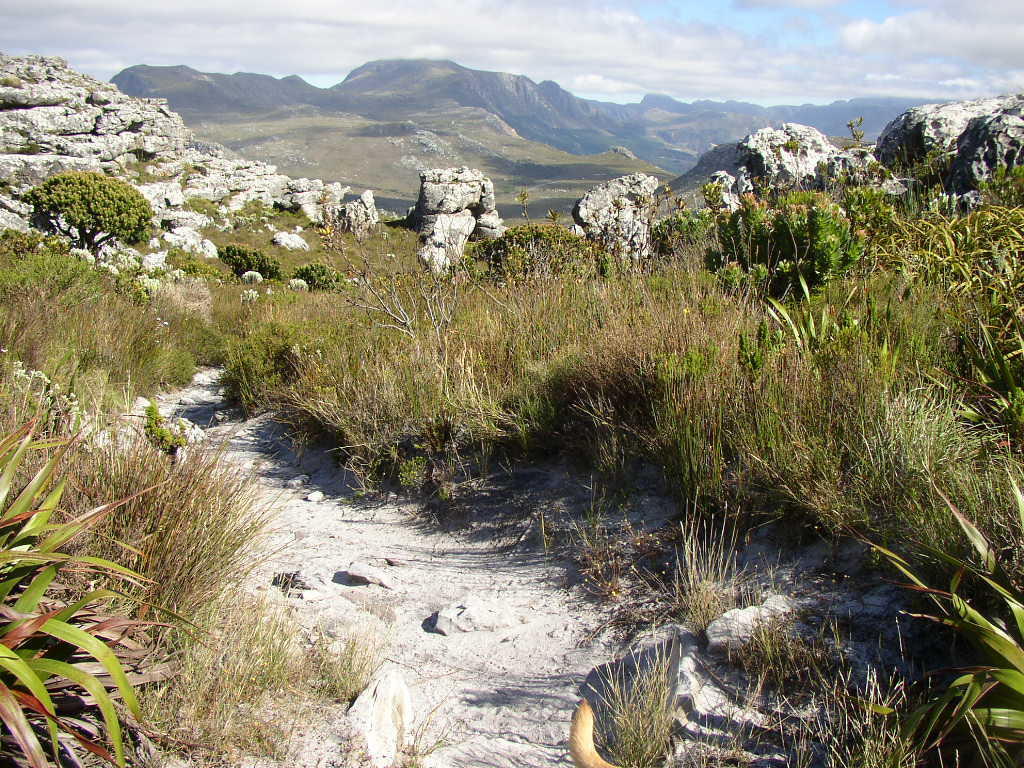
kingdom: Plantae
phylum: Tracheophyta
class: Magnoliopsida
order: Proteales
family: Proteaceae
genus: Mimetes
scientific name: Mimetes fimbriifolius
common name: Fringed bottlebrush
